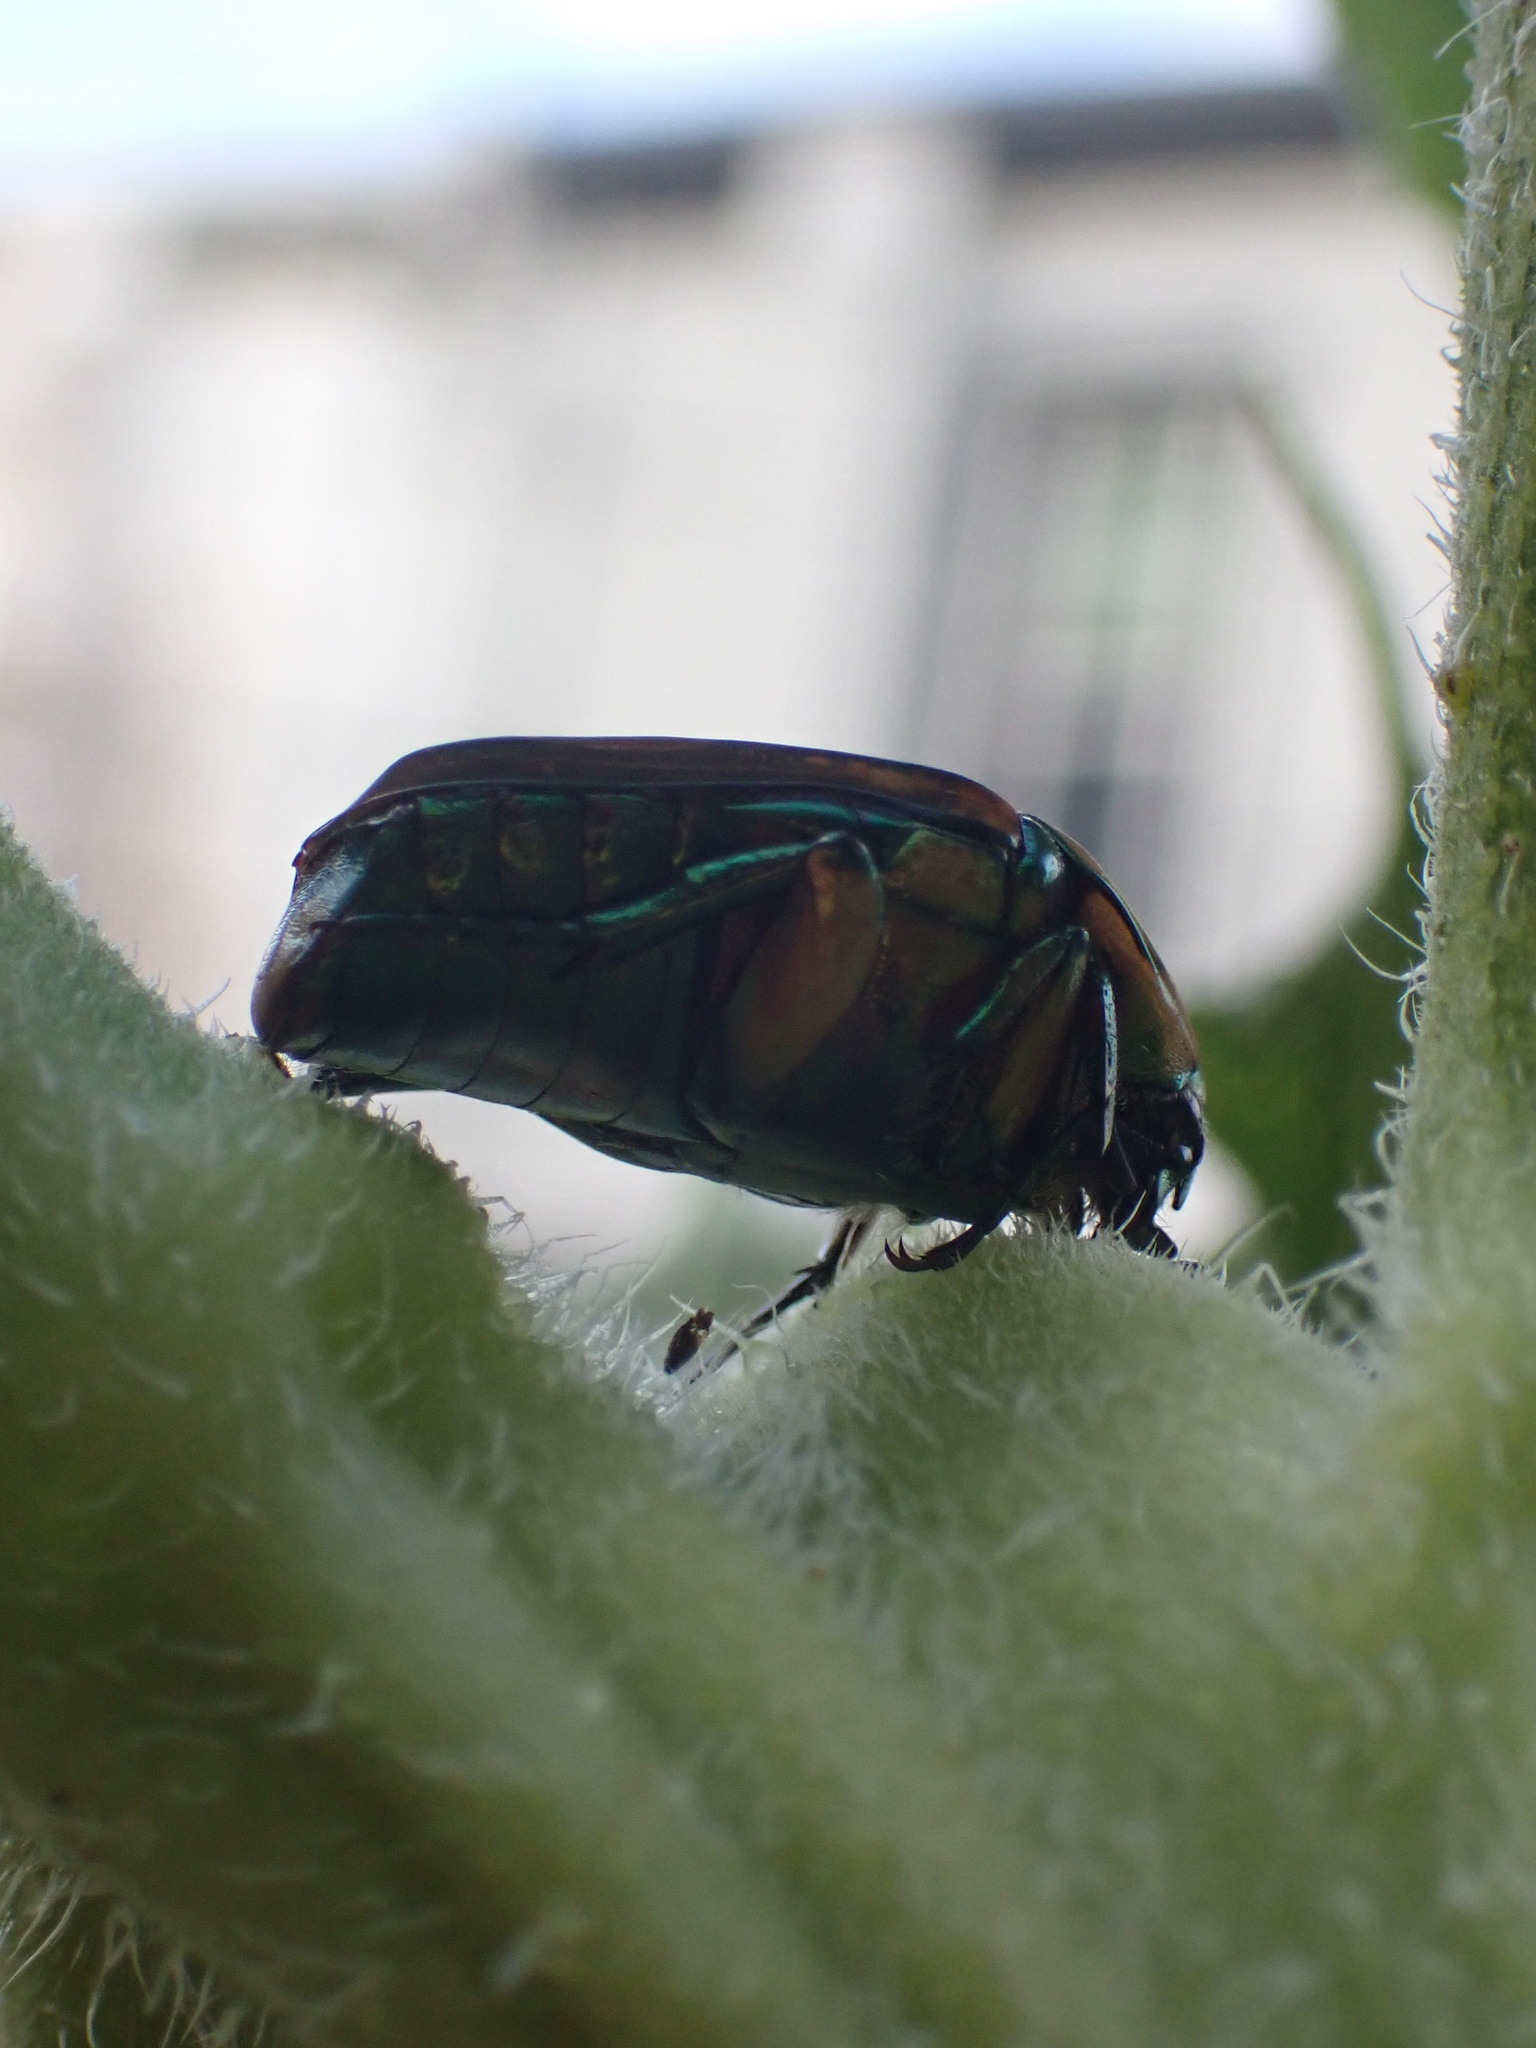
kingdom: Animalia
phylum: Arthropoda
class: Insecta
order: Coleoptera
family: Scarabaeidae
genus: Cotinis
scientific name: Cotinis nitida
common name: Common green june beetle
